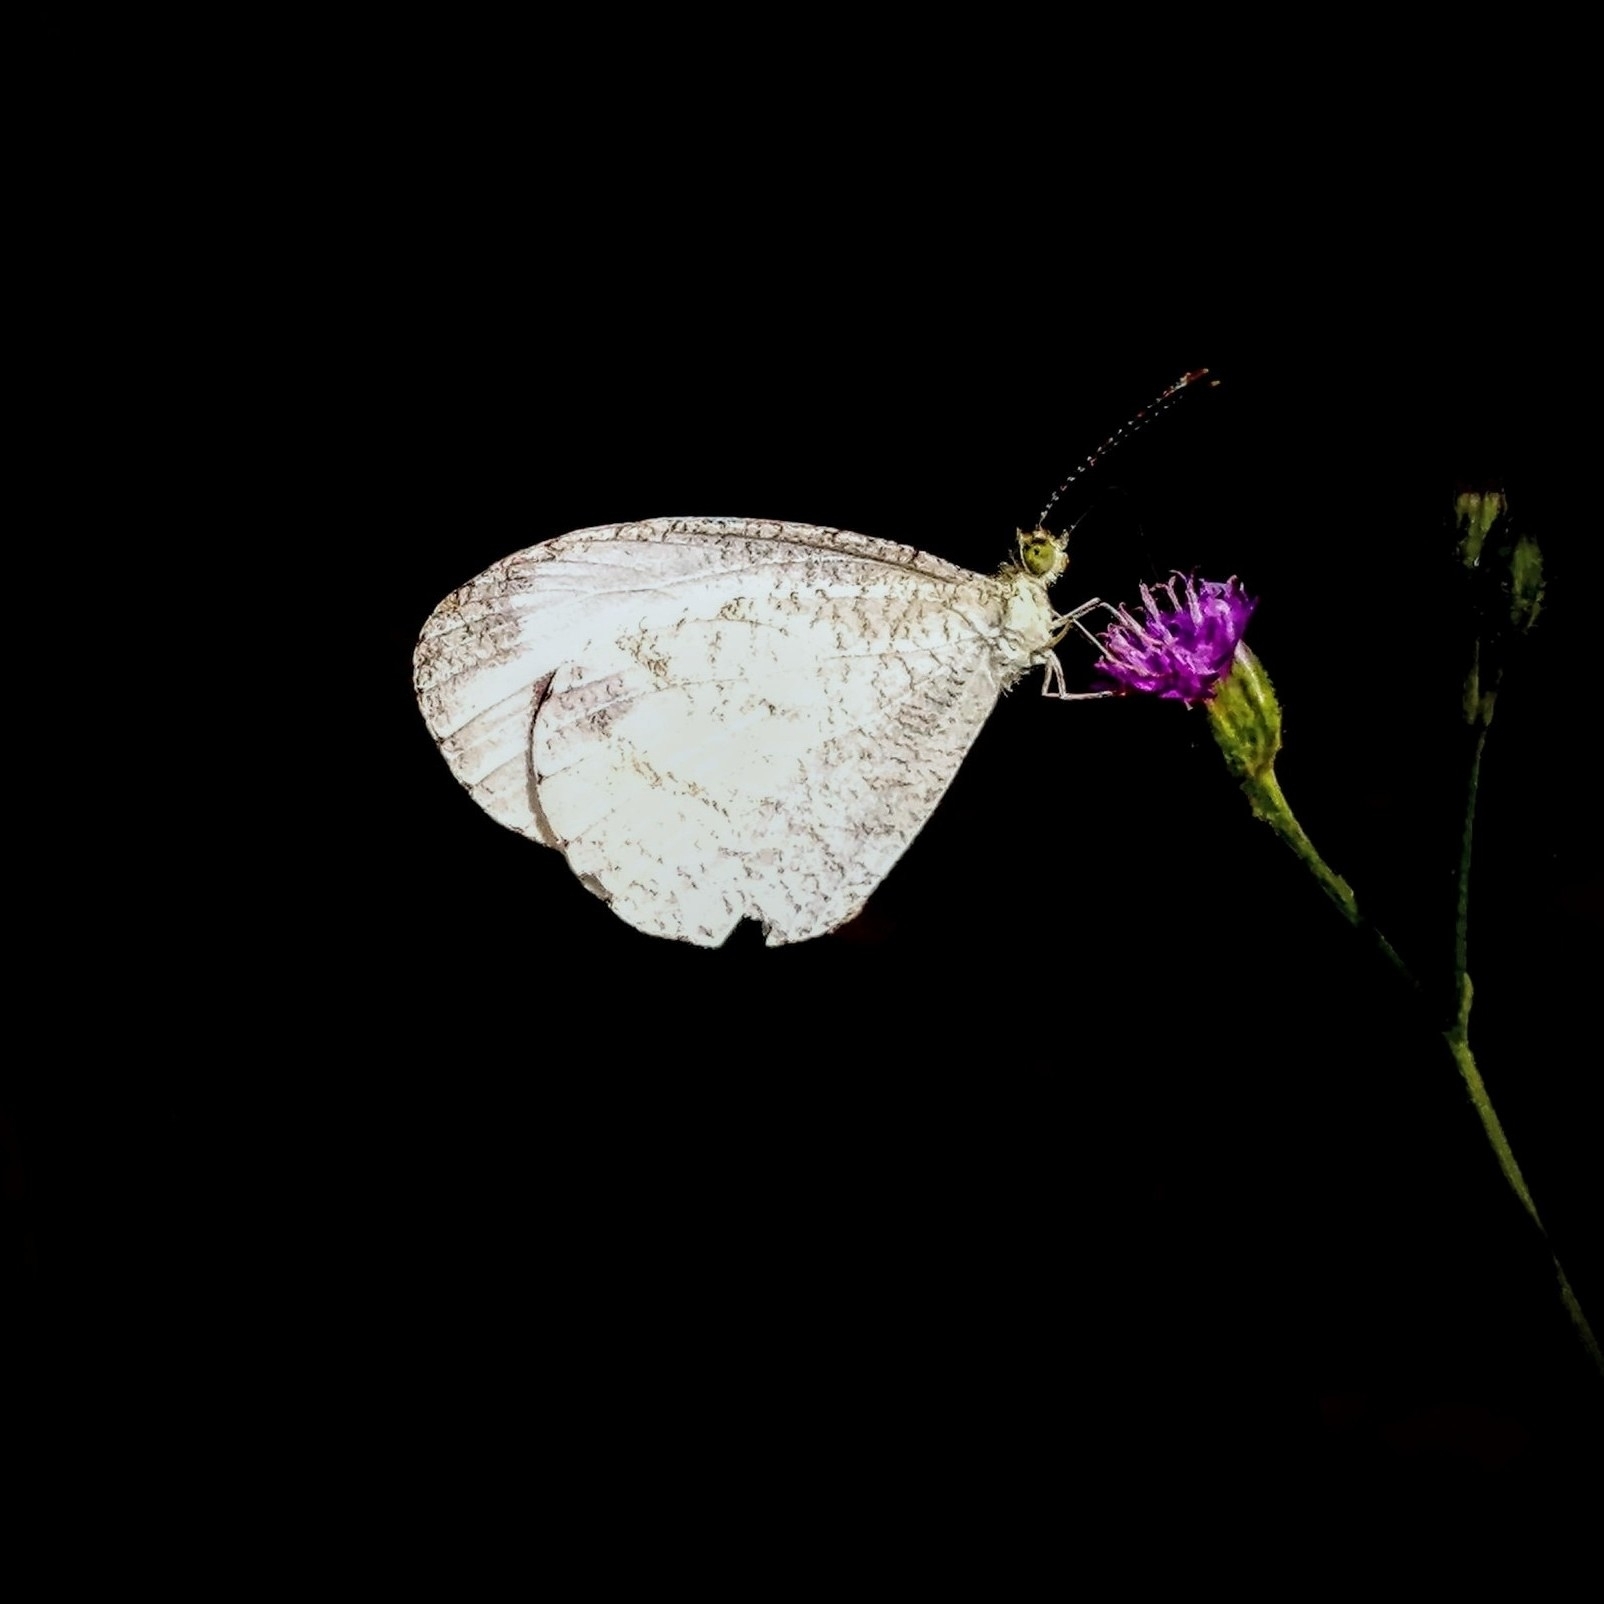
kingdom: Animalia
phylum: Arthropoda
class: Insecta
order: Lepidoptera
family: Pieridae
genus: Leptosia
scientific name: Leptosia nina
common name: Psyche
